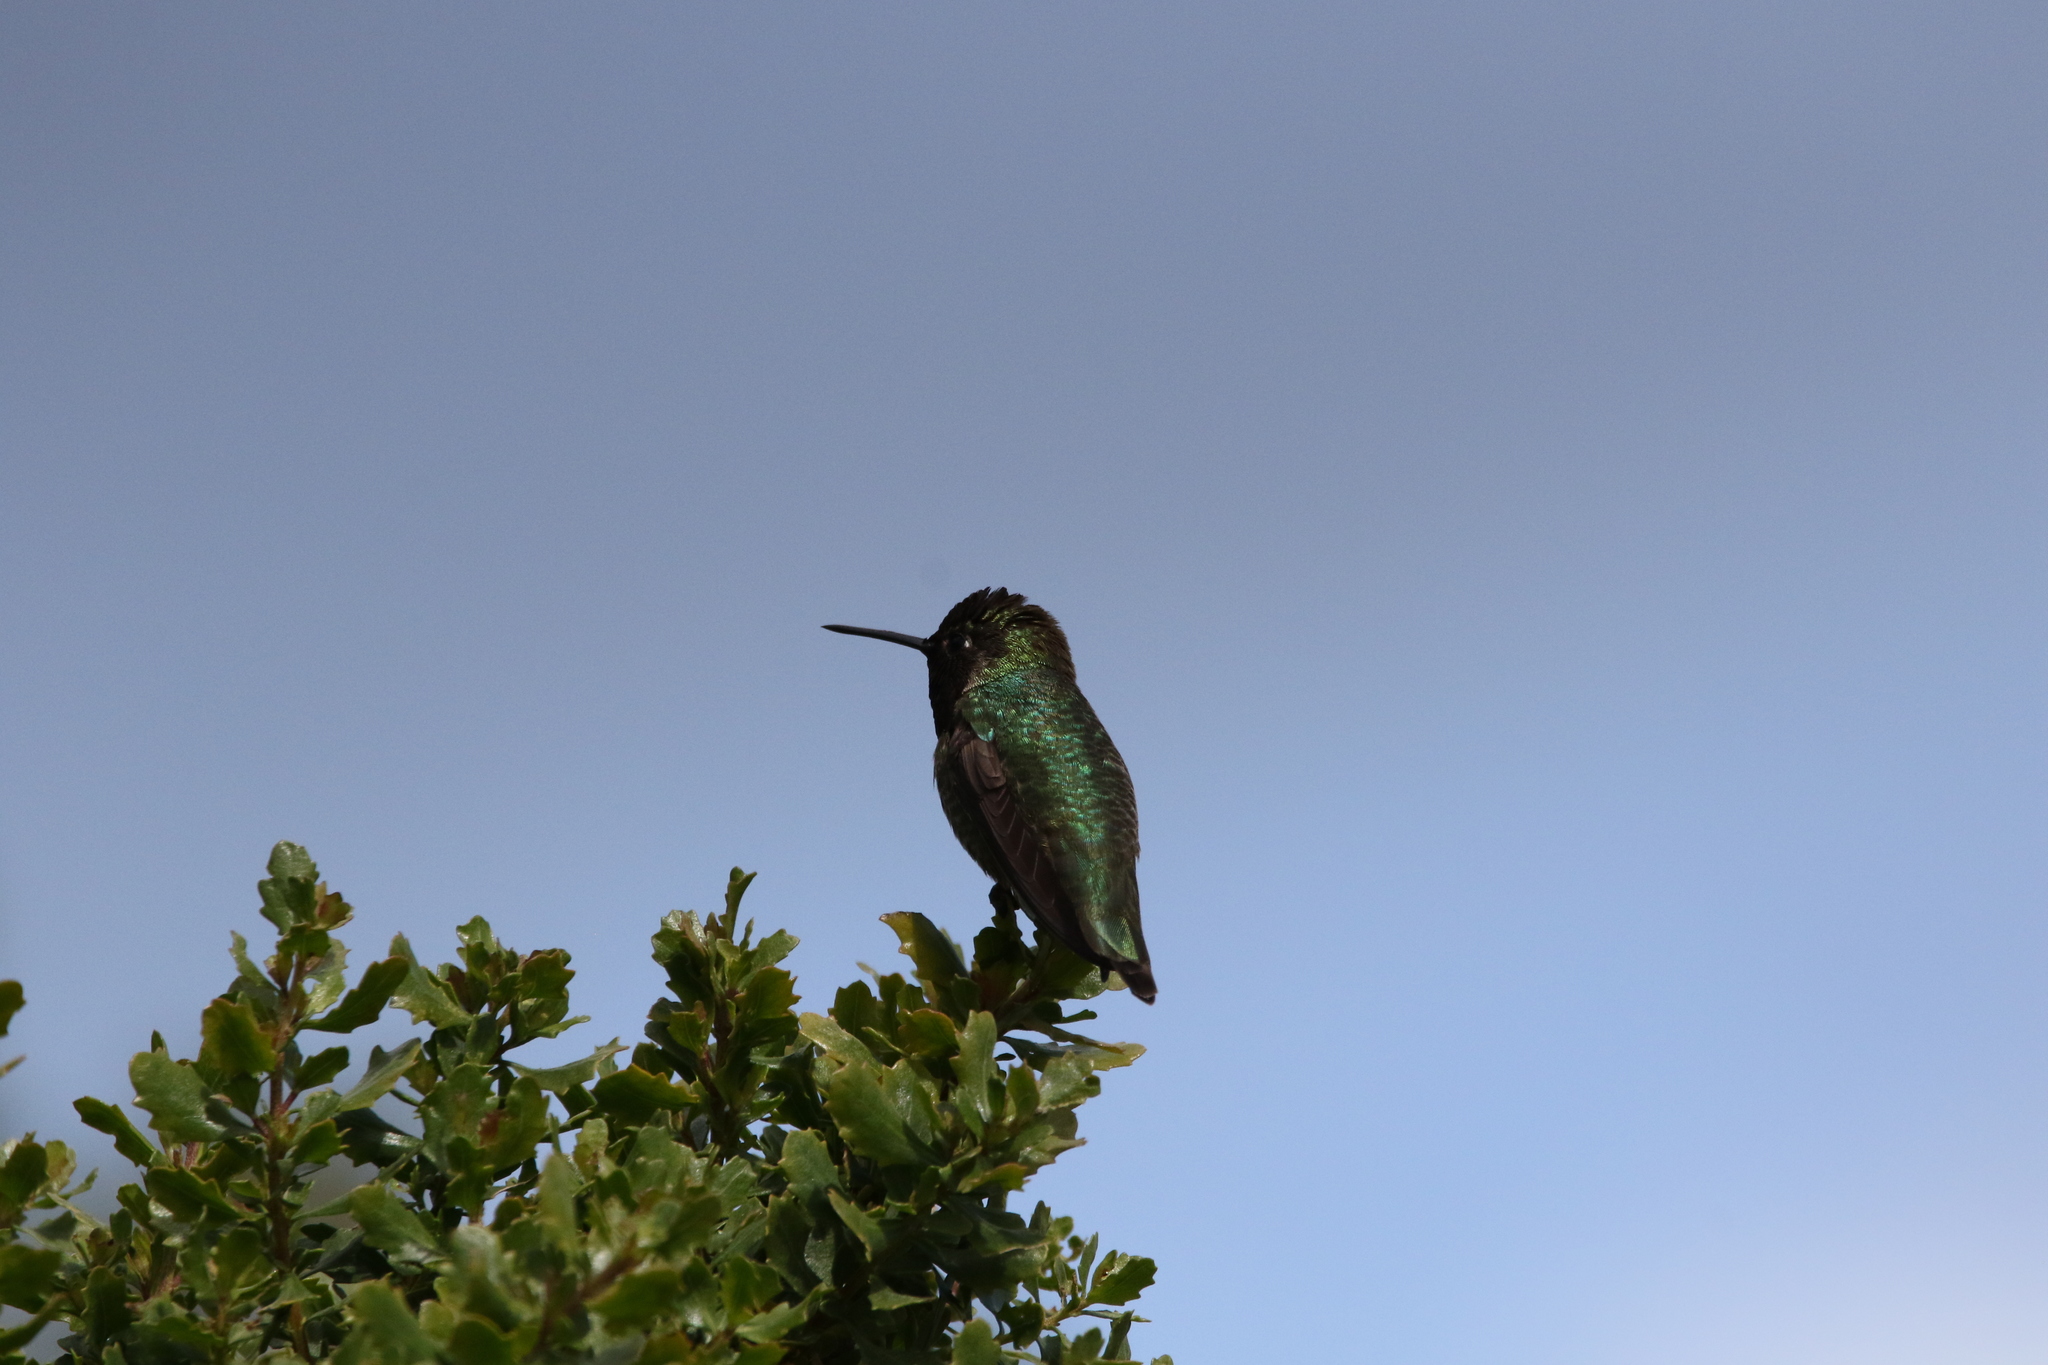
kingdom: Animalia
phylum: Chordata
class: Aves
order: Apodiformes
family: Trochilidae
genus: Calypte
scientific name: Calypte anna
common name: Anna's hummingbird
